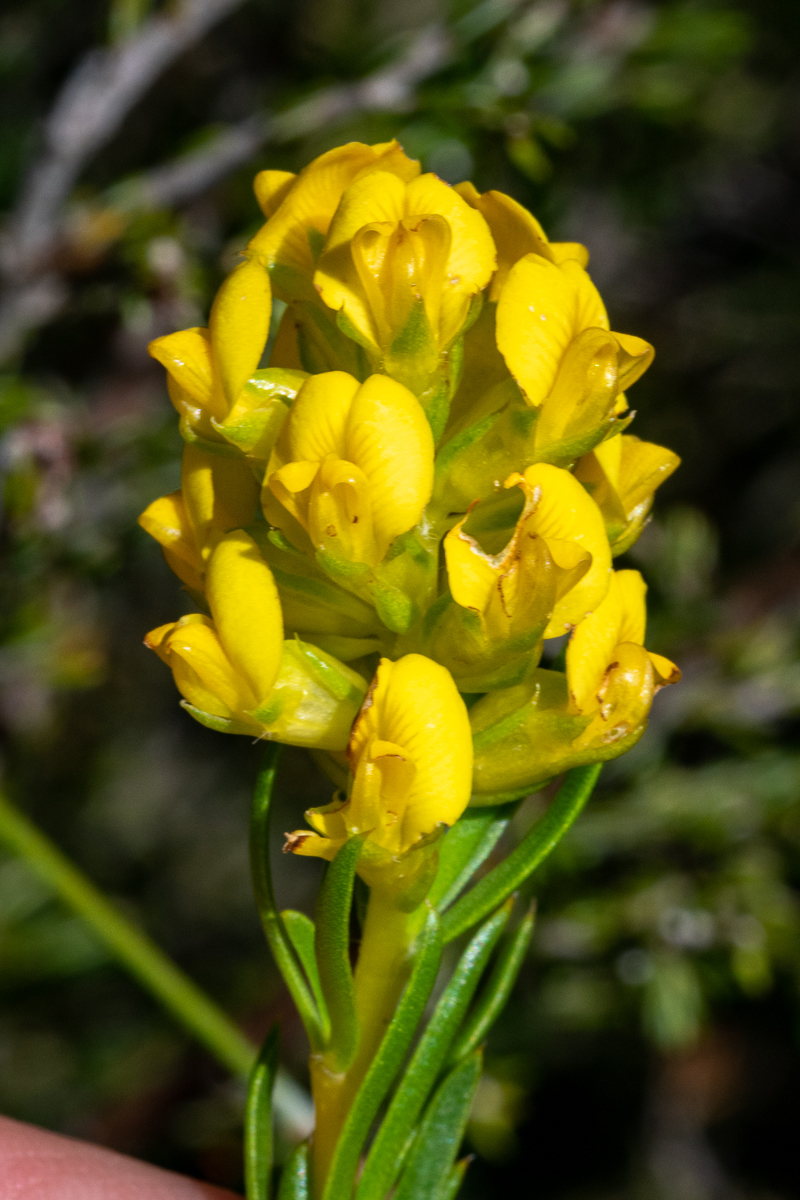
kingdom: Plantae
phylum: Tracheophyta
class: Magnoliopsida
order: Fabales
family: Fabaceae
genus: Aspalathus
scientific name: Aspalathus callosa
